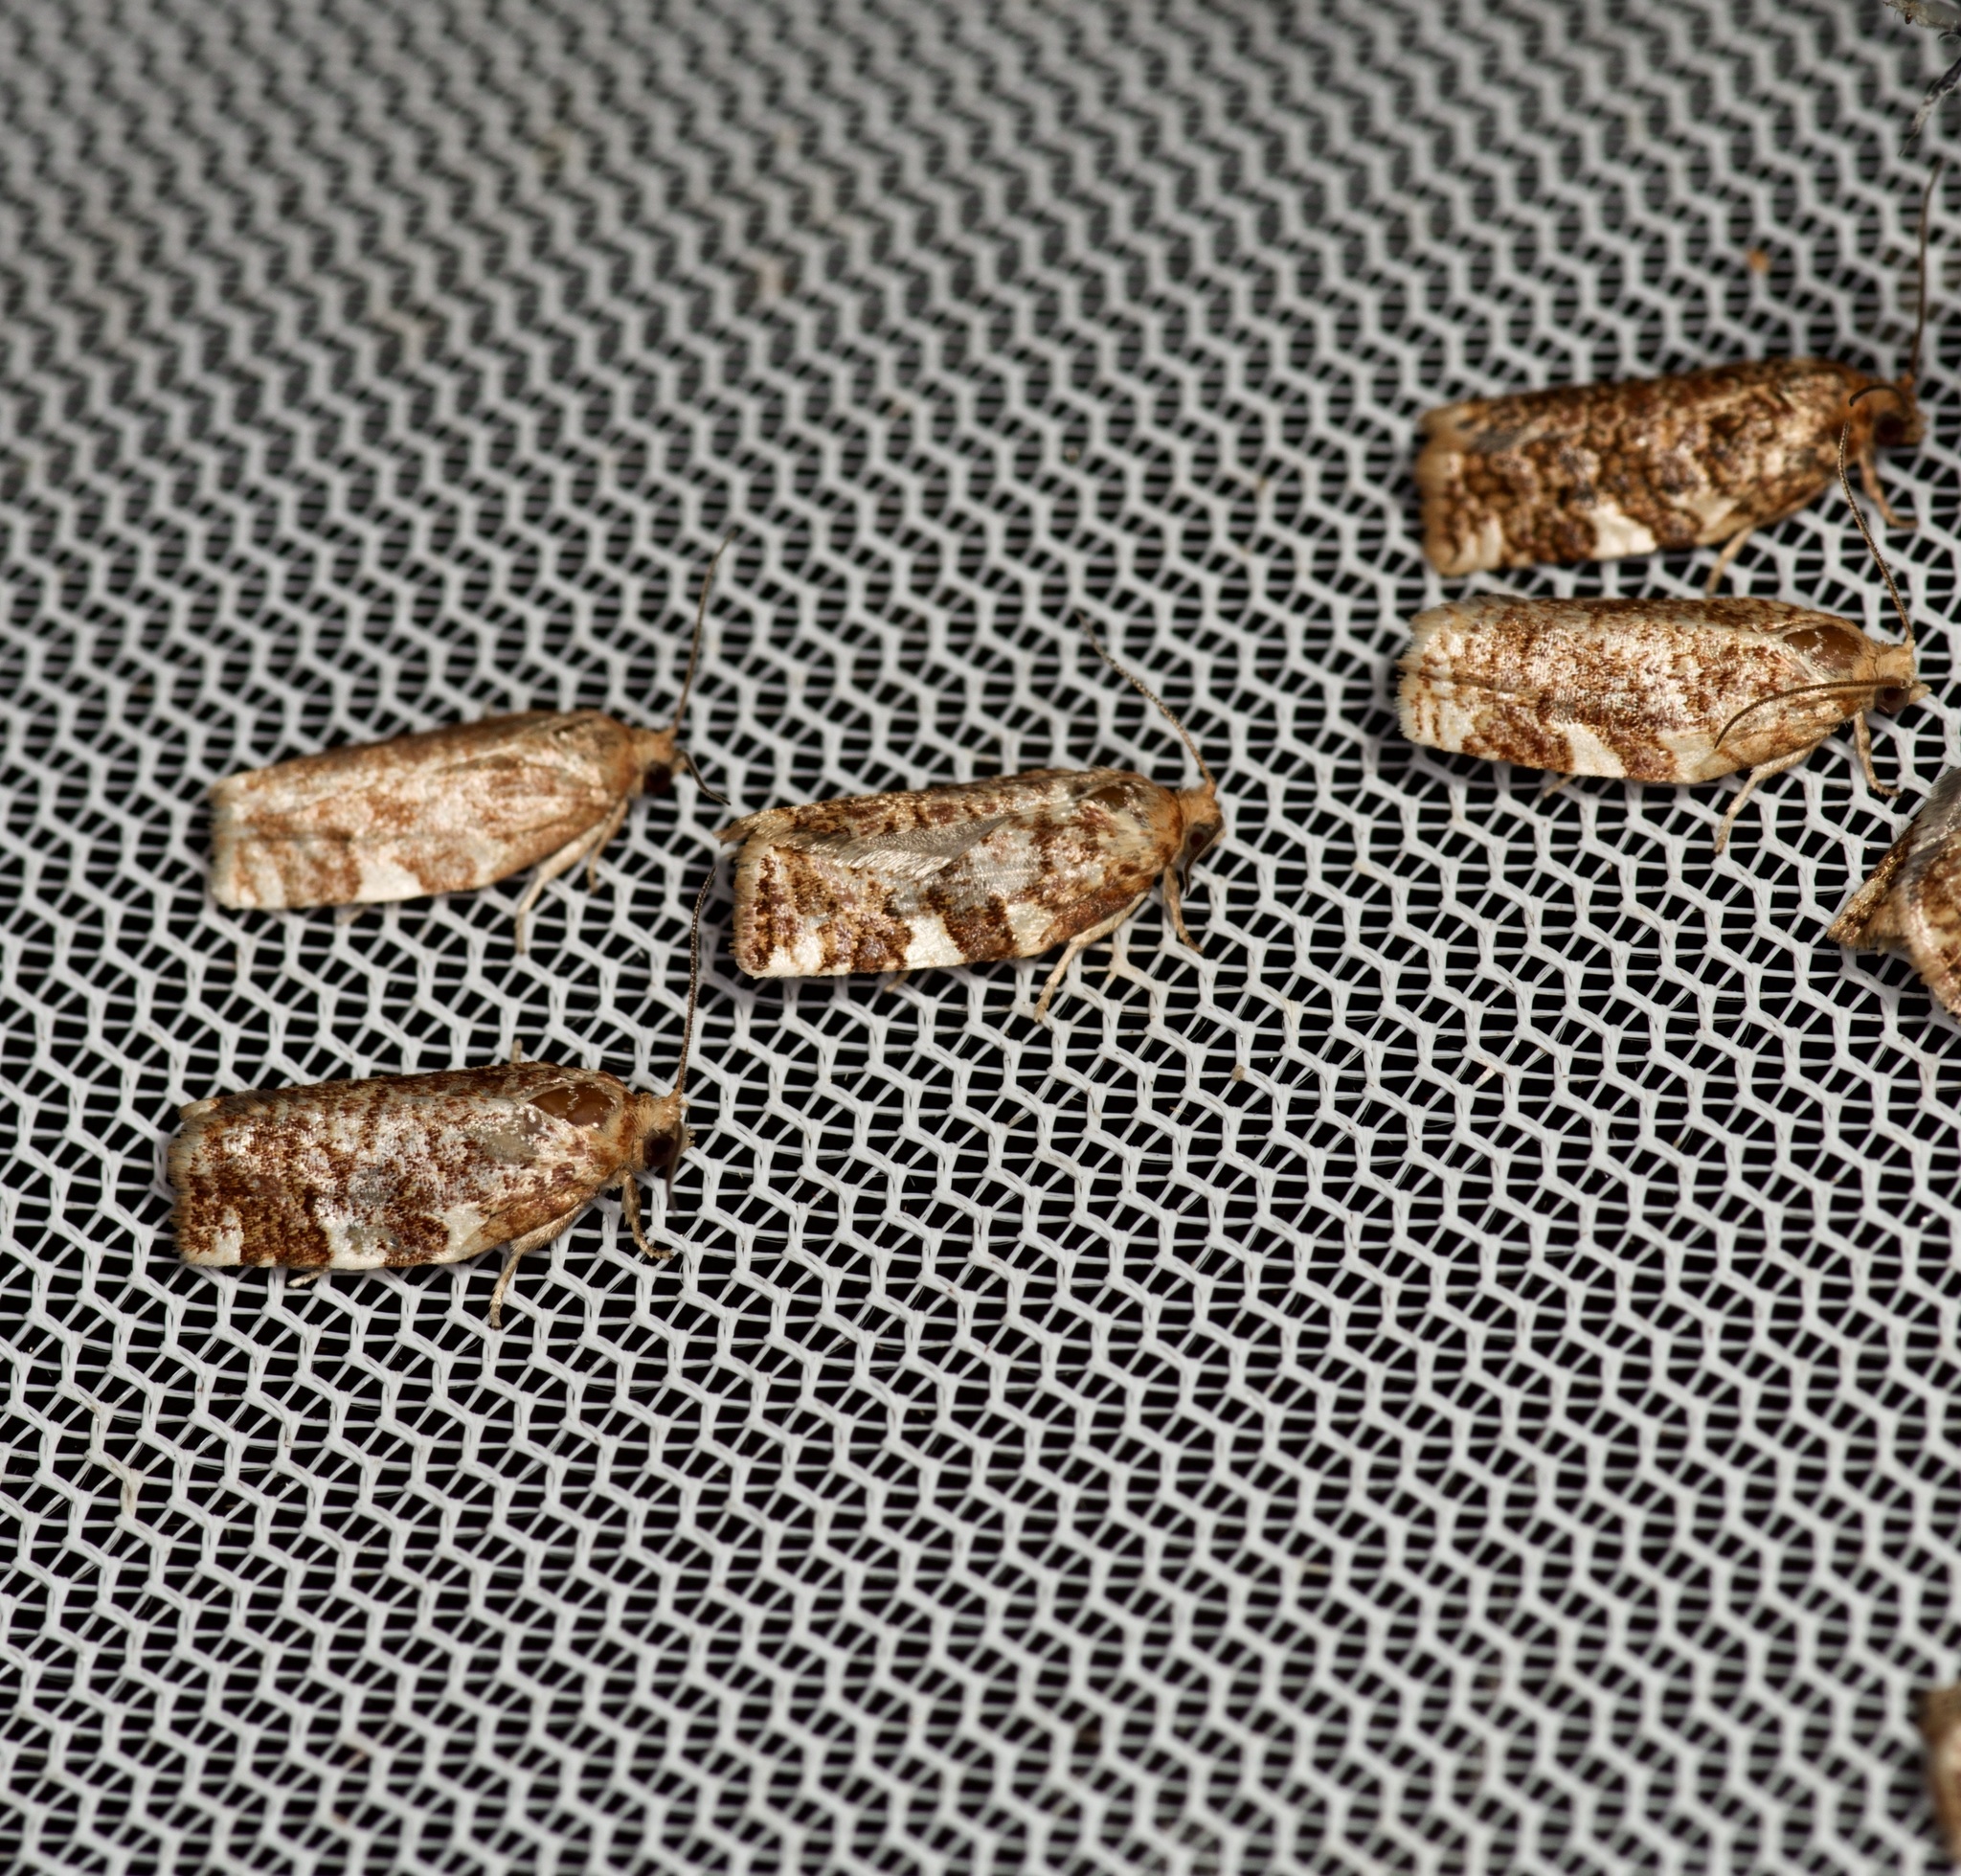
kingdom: Animalia
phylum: Arthropoda
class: Insecta
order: Lepidoptera
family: Tortricidae
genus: Archips
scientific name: Archips argyrospila
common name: Fruit-tree leafroller moth
